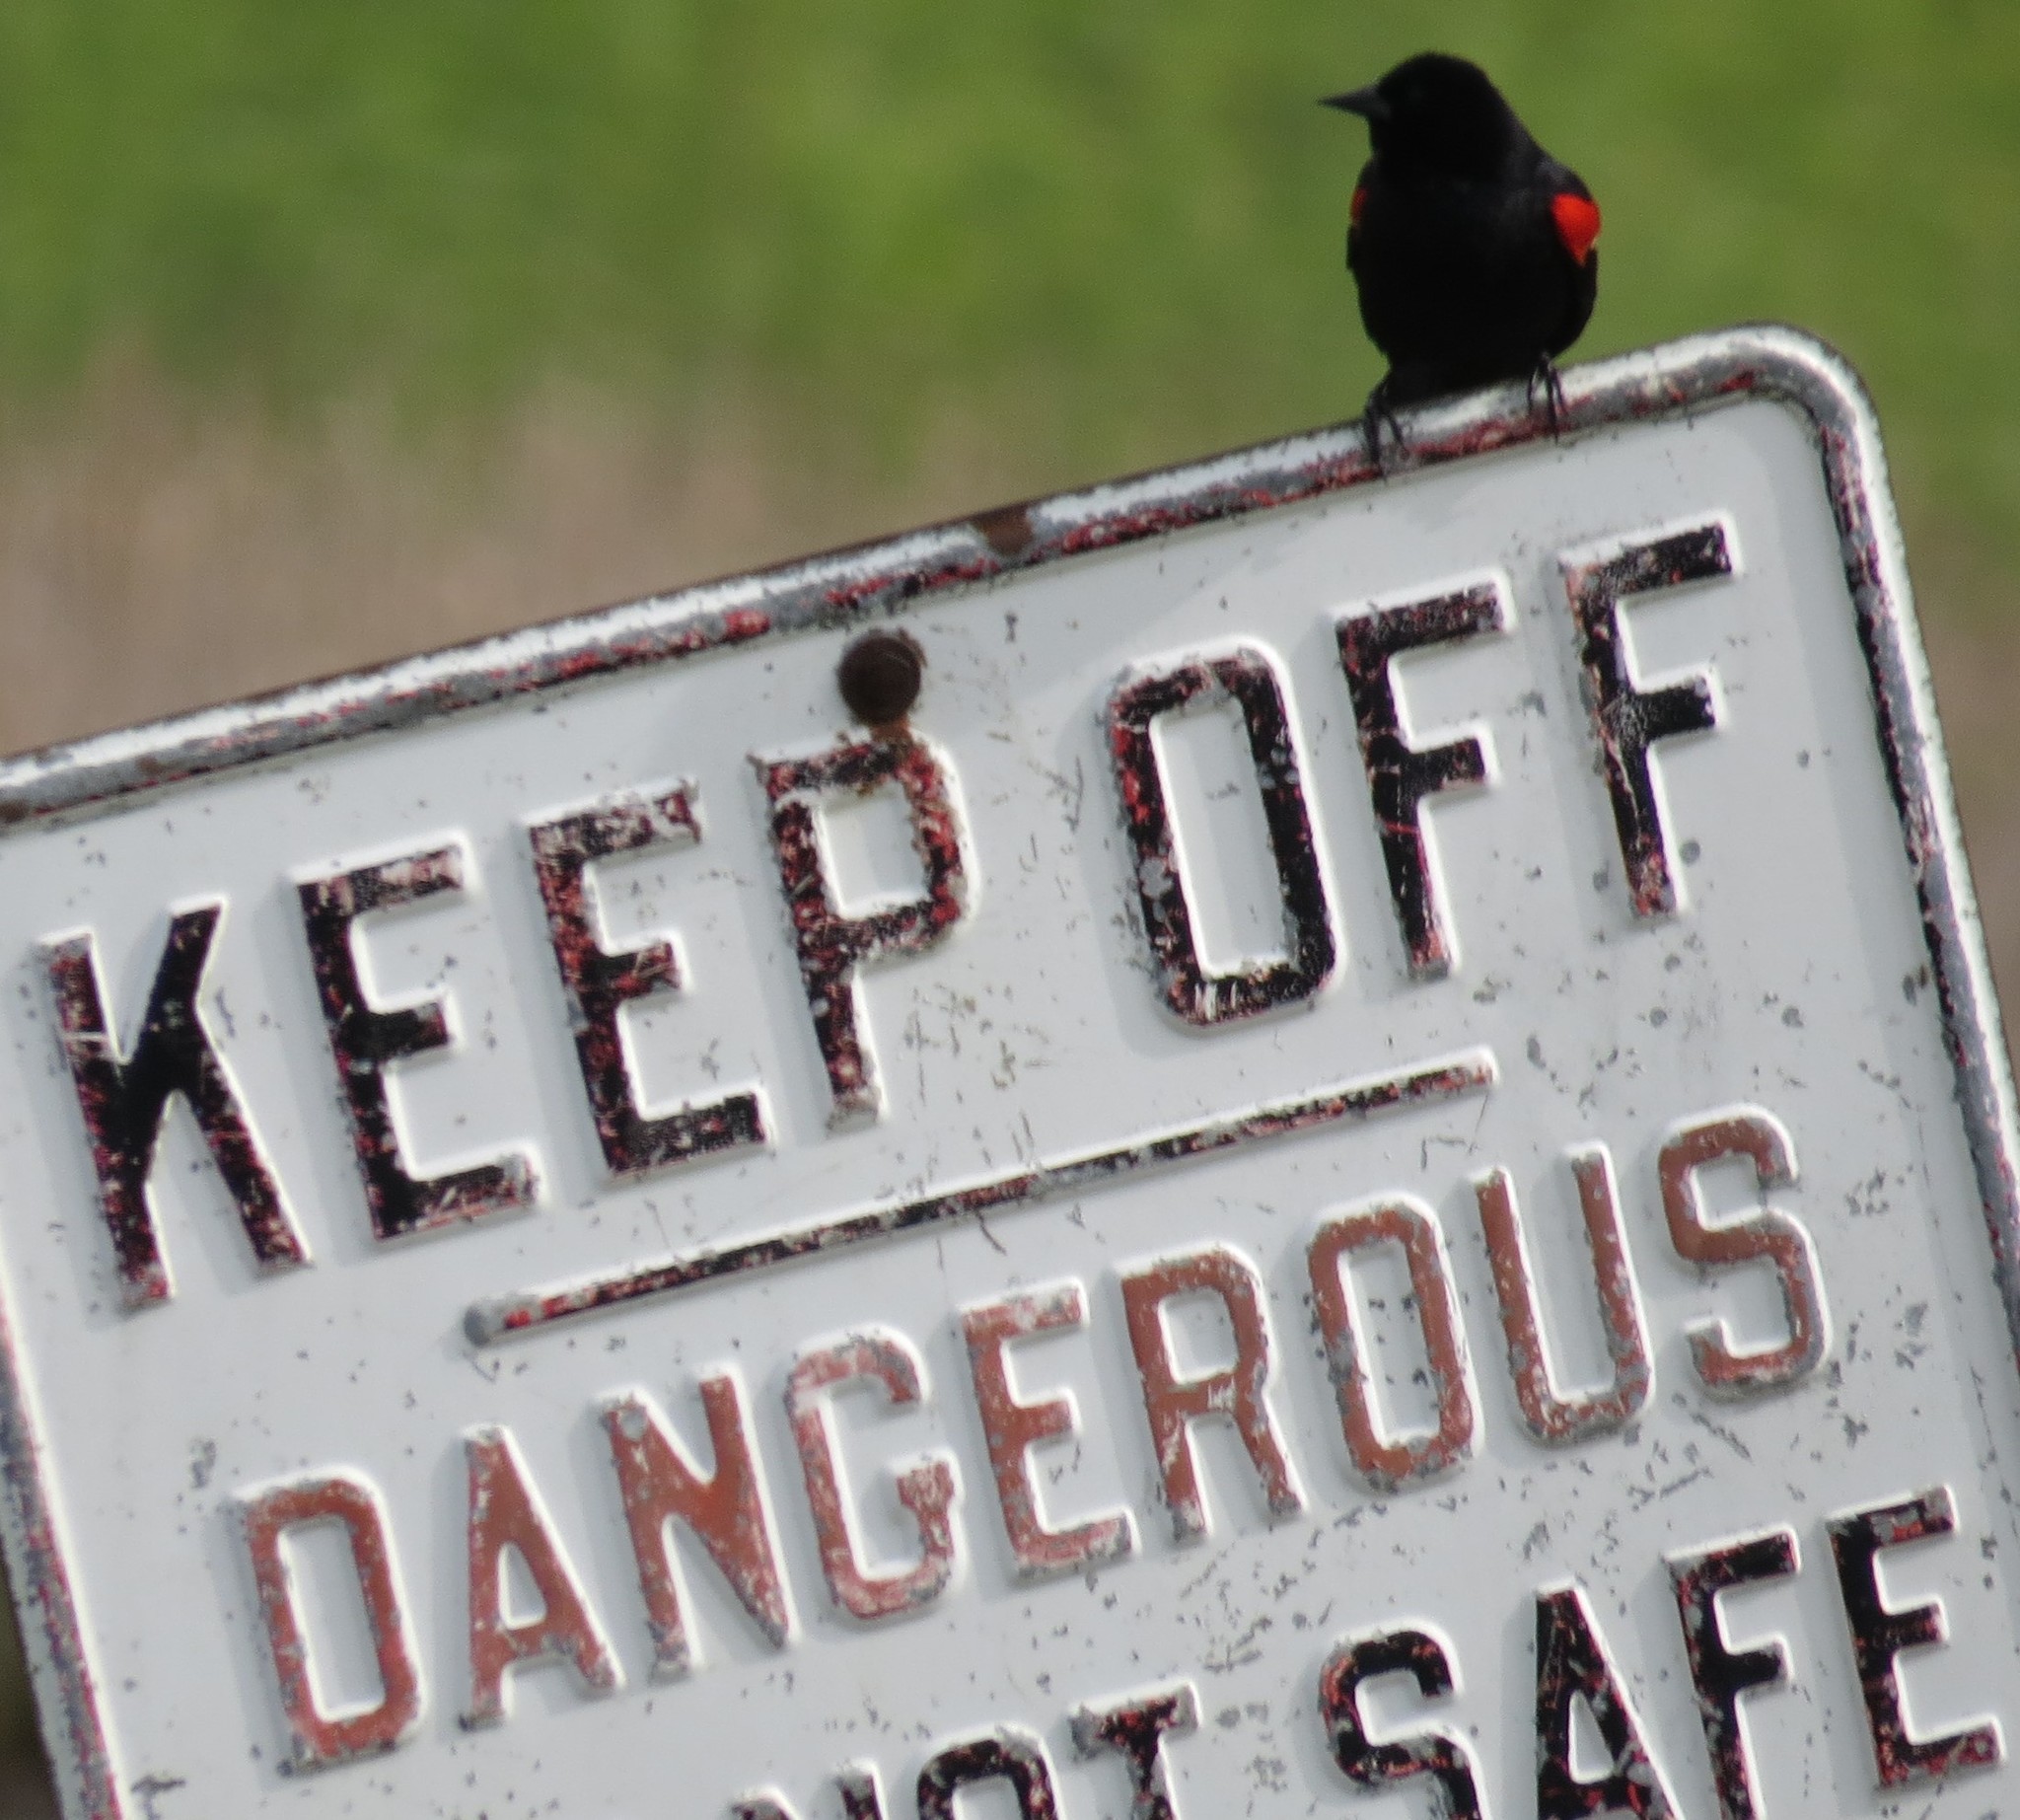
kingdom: Animalia
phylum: Chordata
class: Aves
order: Passeriformes
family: Icteridae
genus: Agelaius
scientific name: Agelaius phoeniceus
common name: Red-winged blackbird
